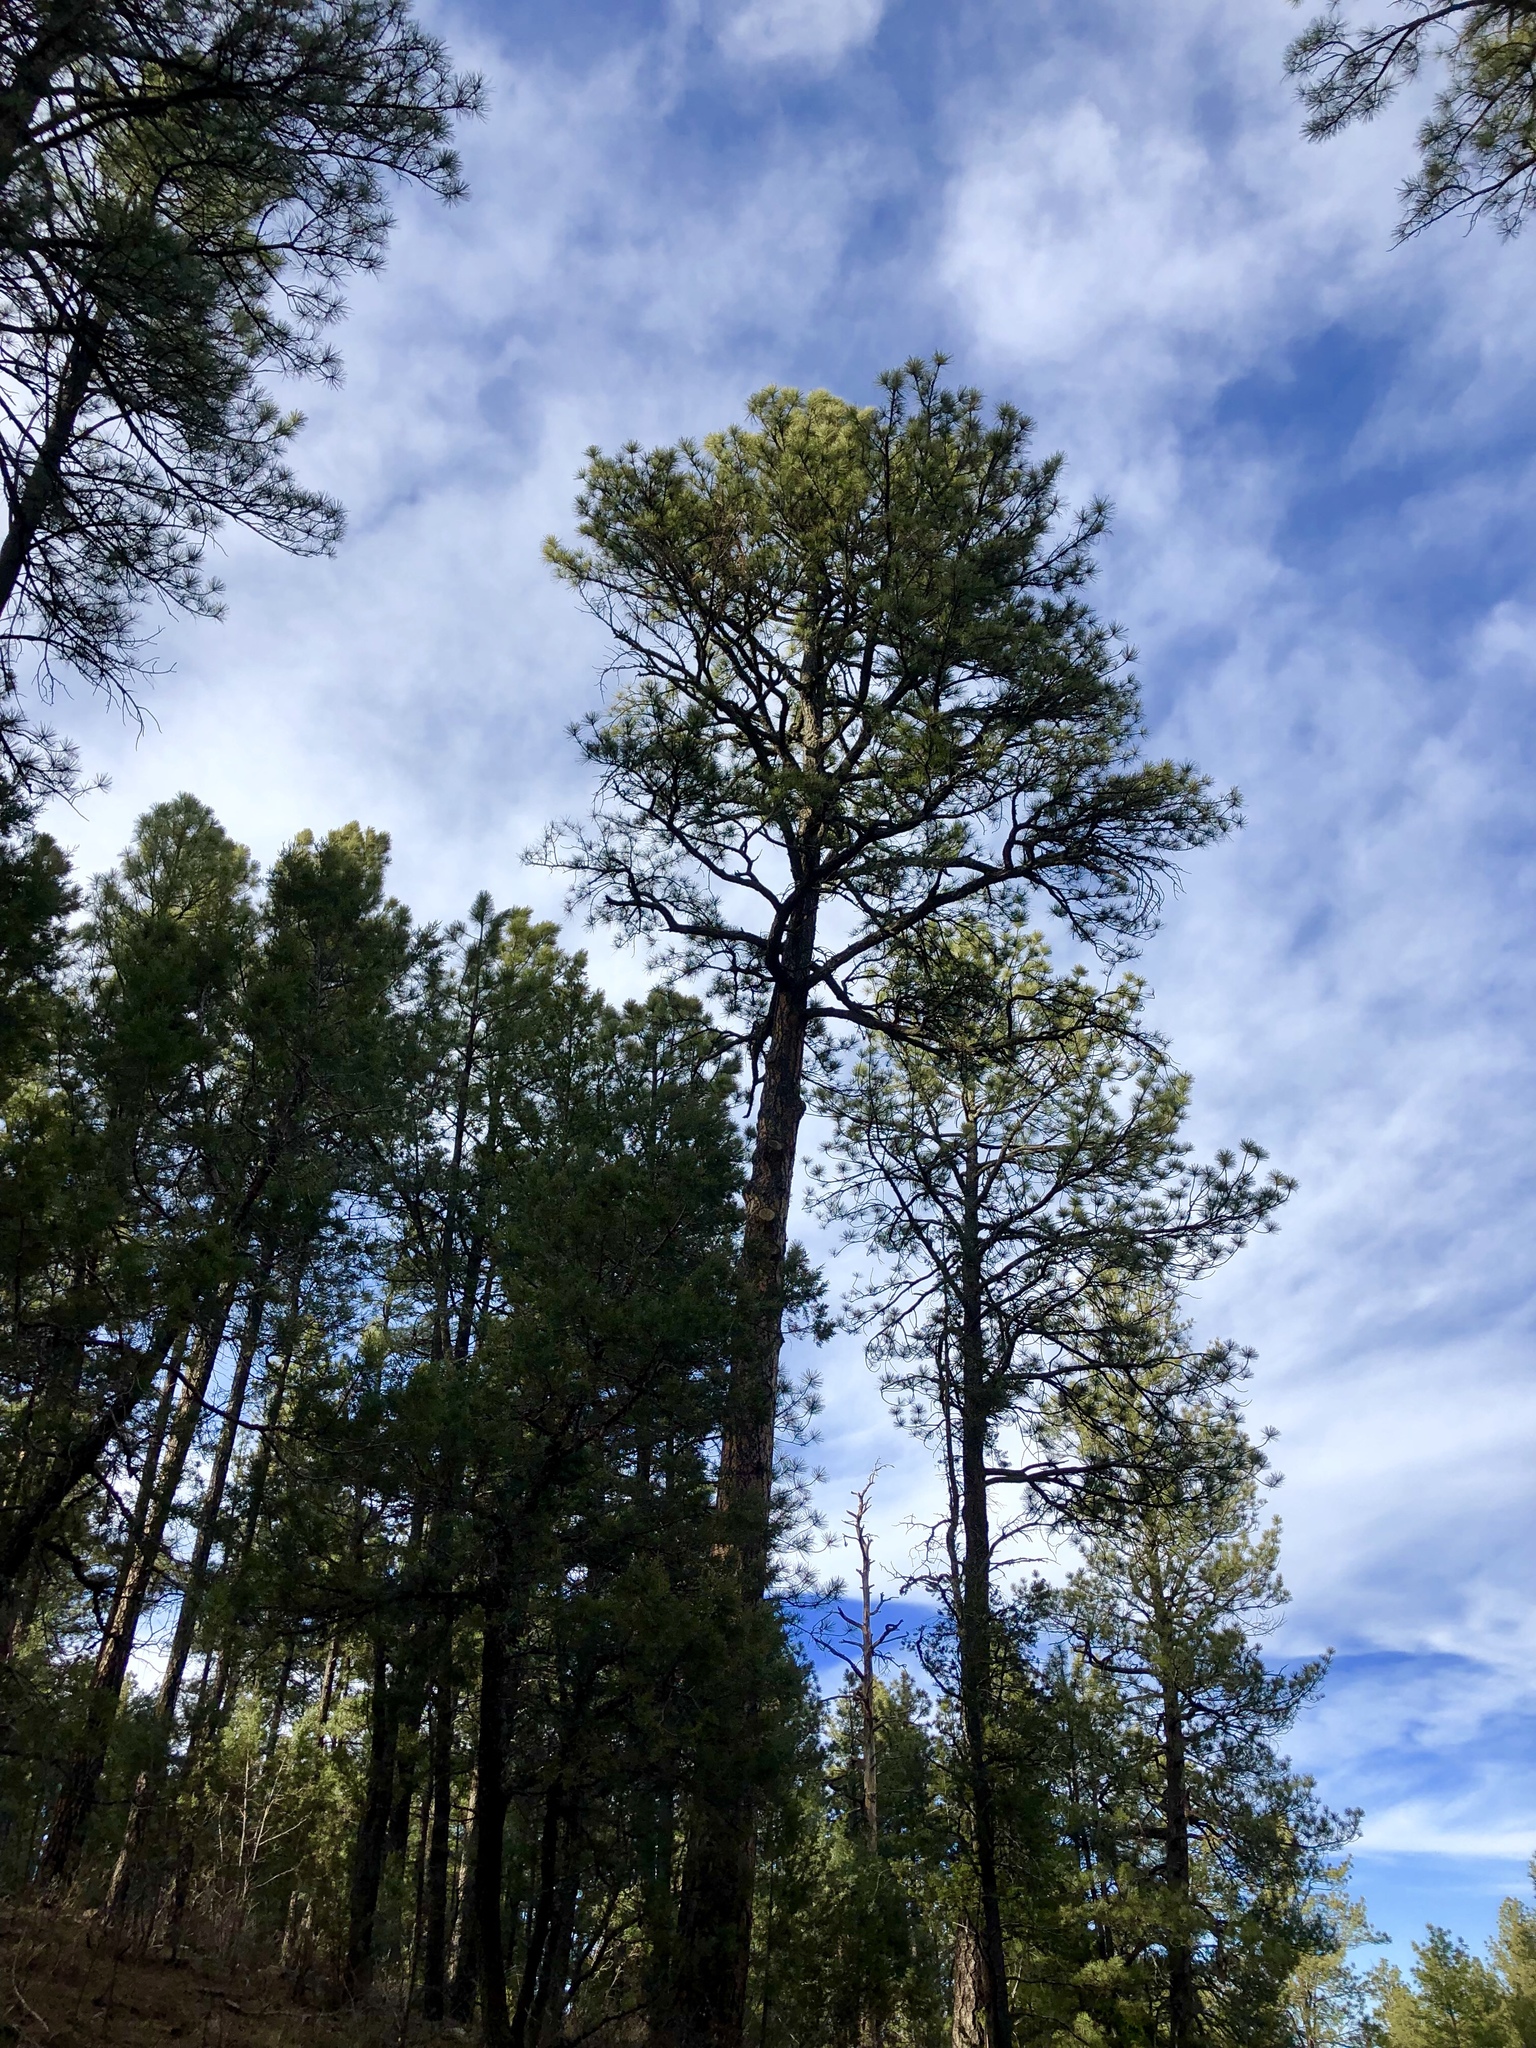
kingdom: Plantae
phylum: Tracheophyta
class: Pinopsida
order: Pinales
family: Pinaceae
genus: Pinus
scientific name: Pinus ponderosa
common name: Western yellow-pine
